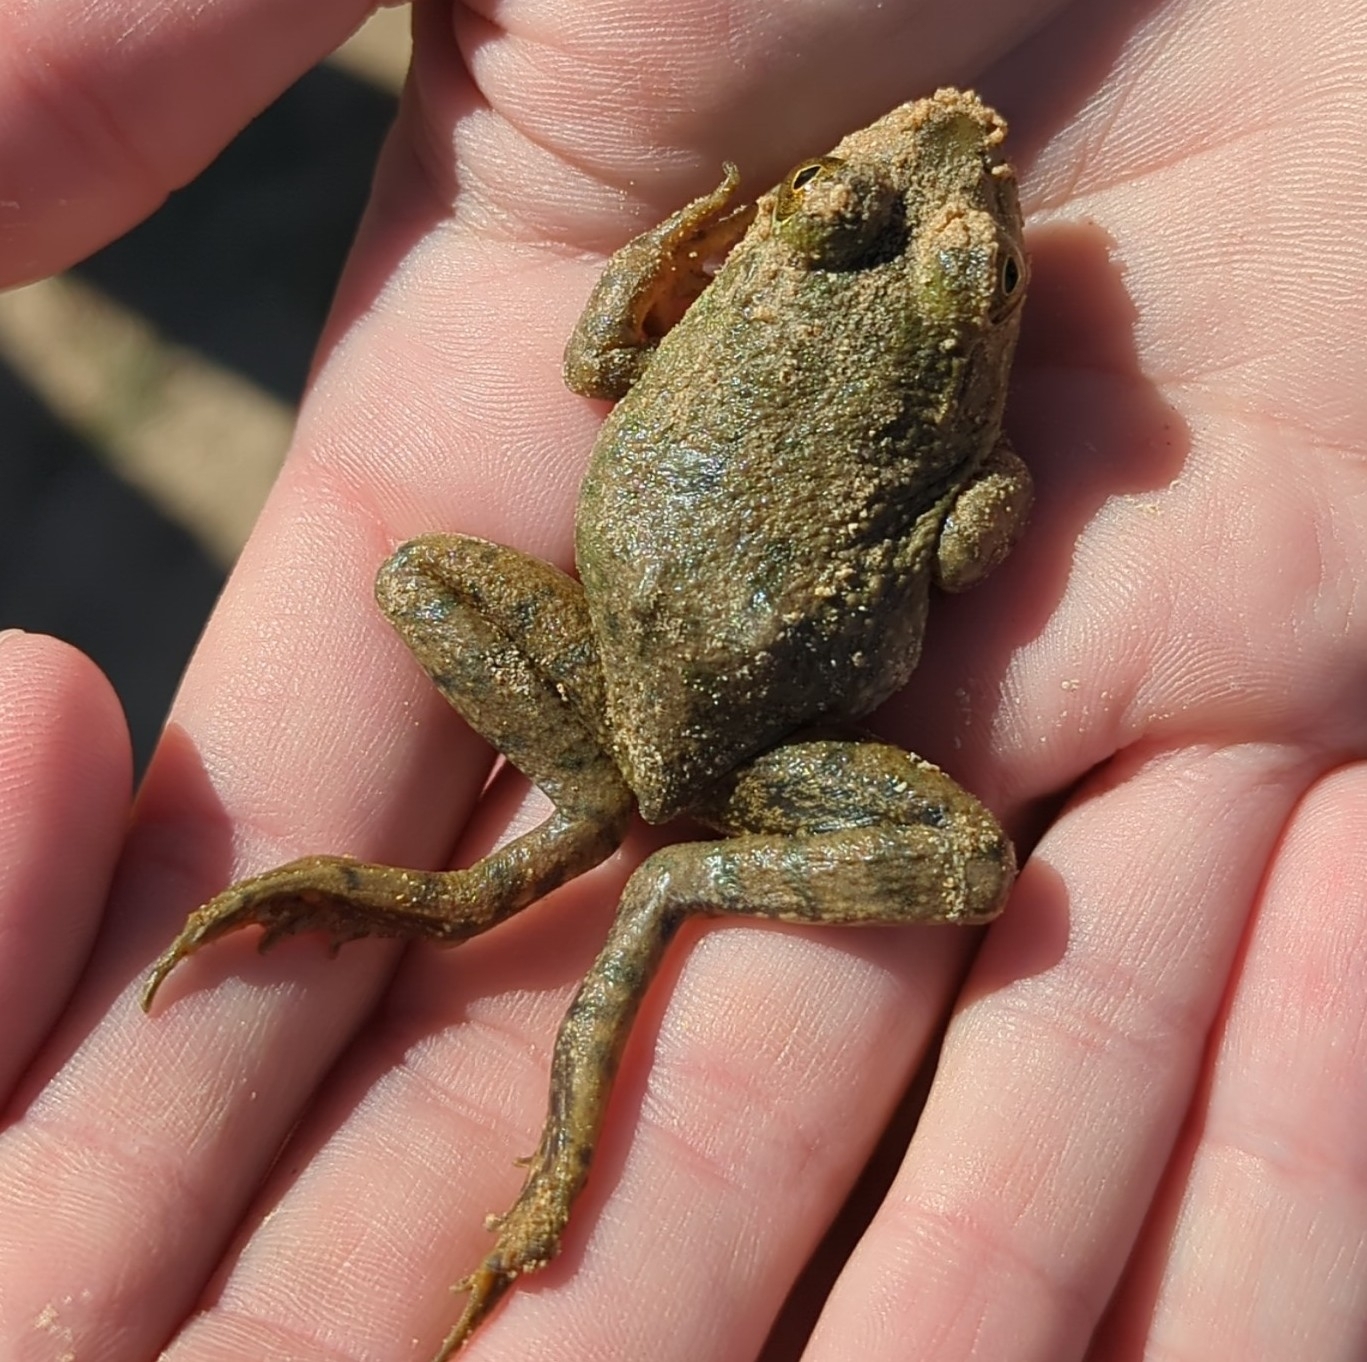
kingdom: Animalia
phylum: Chordata
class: Amphibia
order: Anura
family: Ranidae
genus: Lithobates
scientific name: Lithobates catesbeianus
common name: American bullfrog
